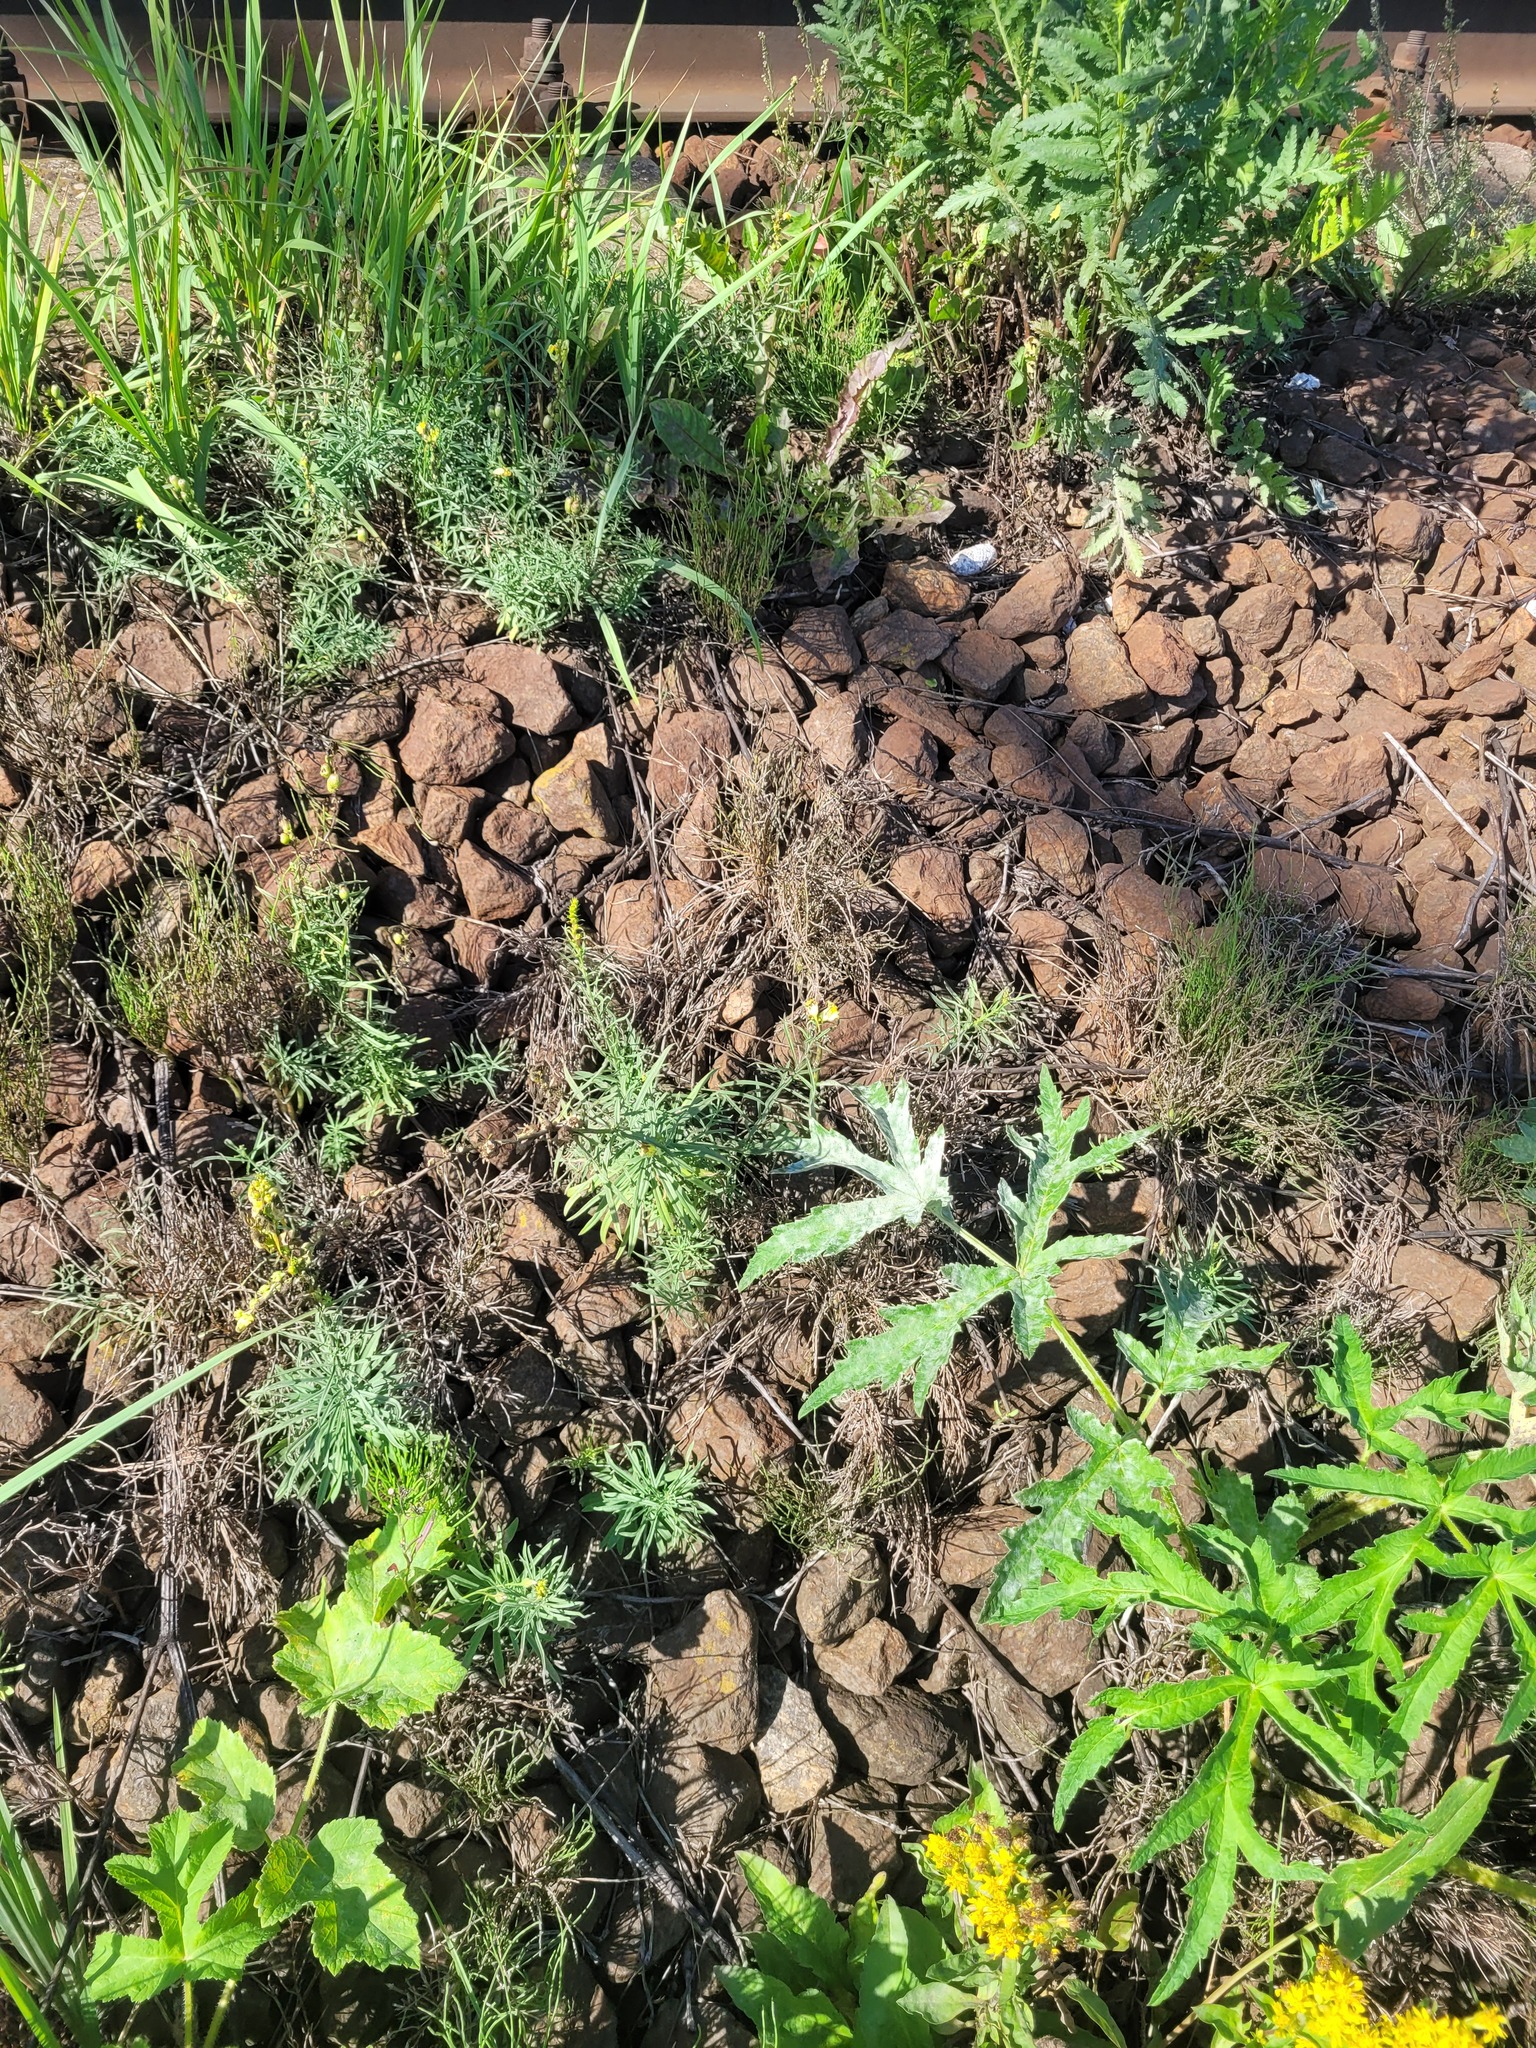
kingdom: Plantae
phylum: Tracheophyta
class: Magnoliopsida
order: Lamiales
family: Plantaginaceae
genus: Linaria
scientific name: Linaria vulgaris
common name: Butter and eggs
